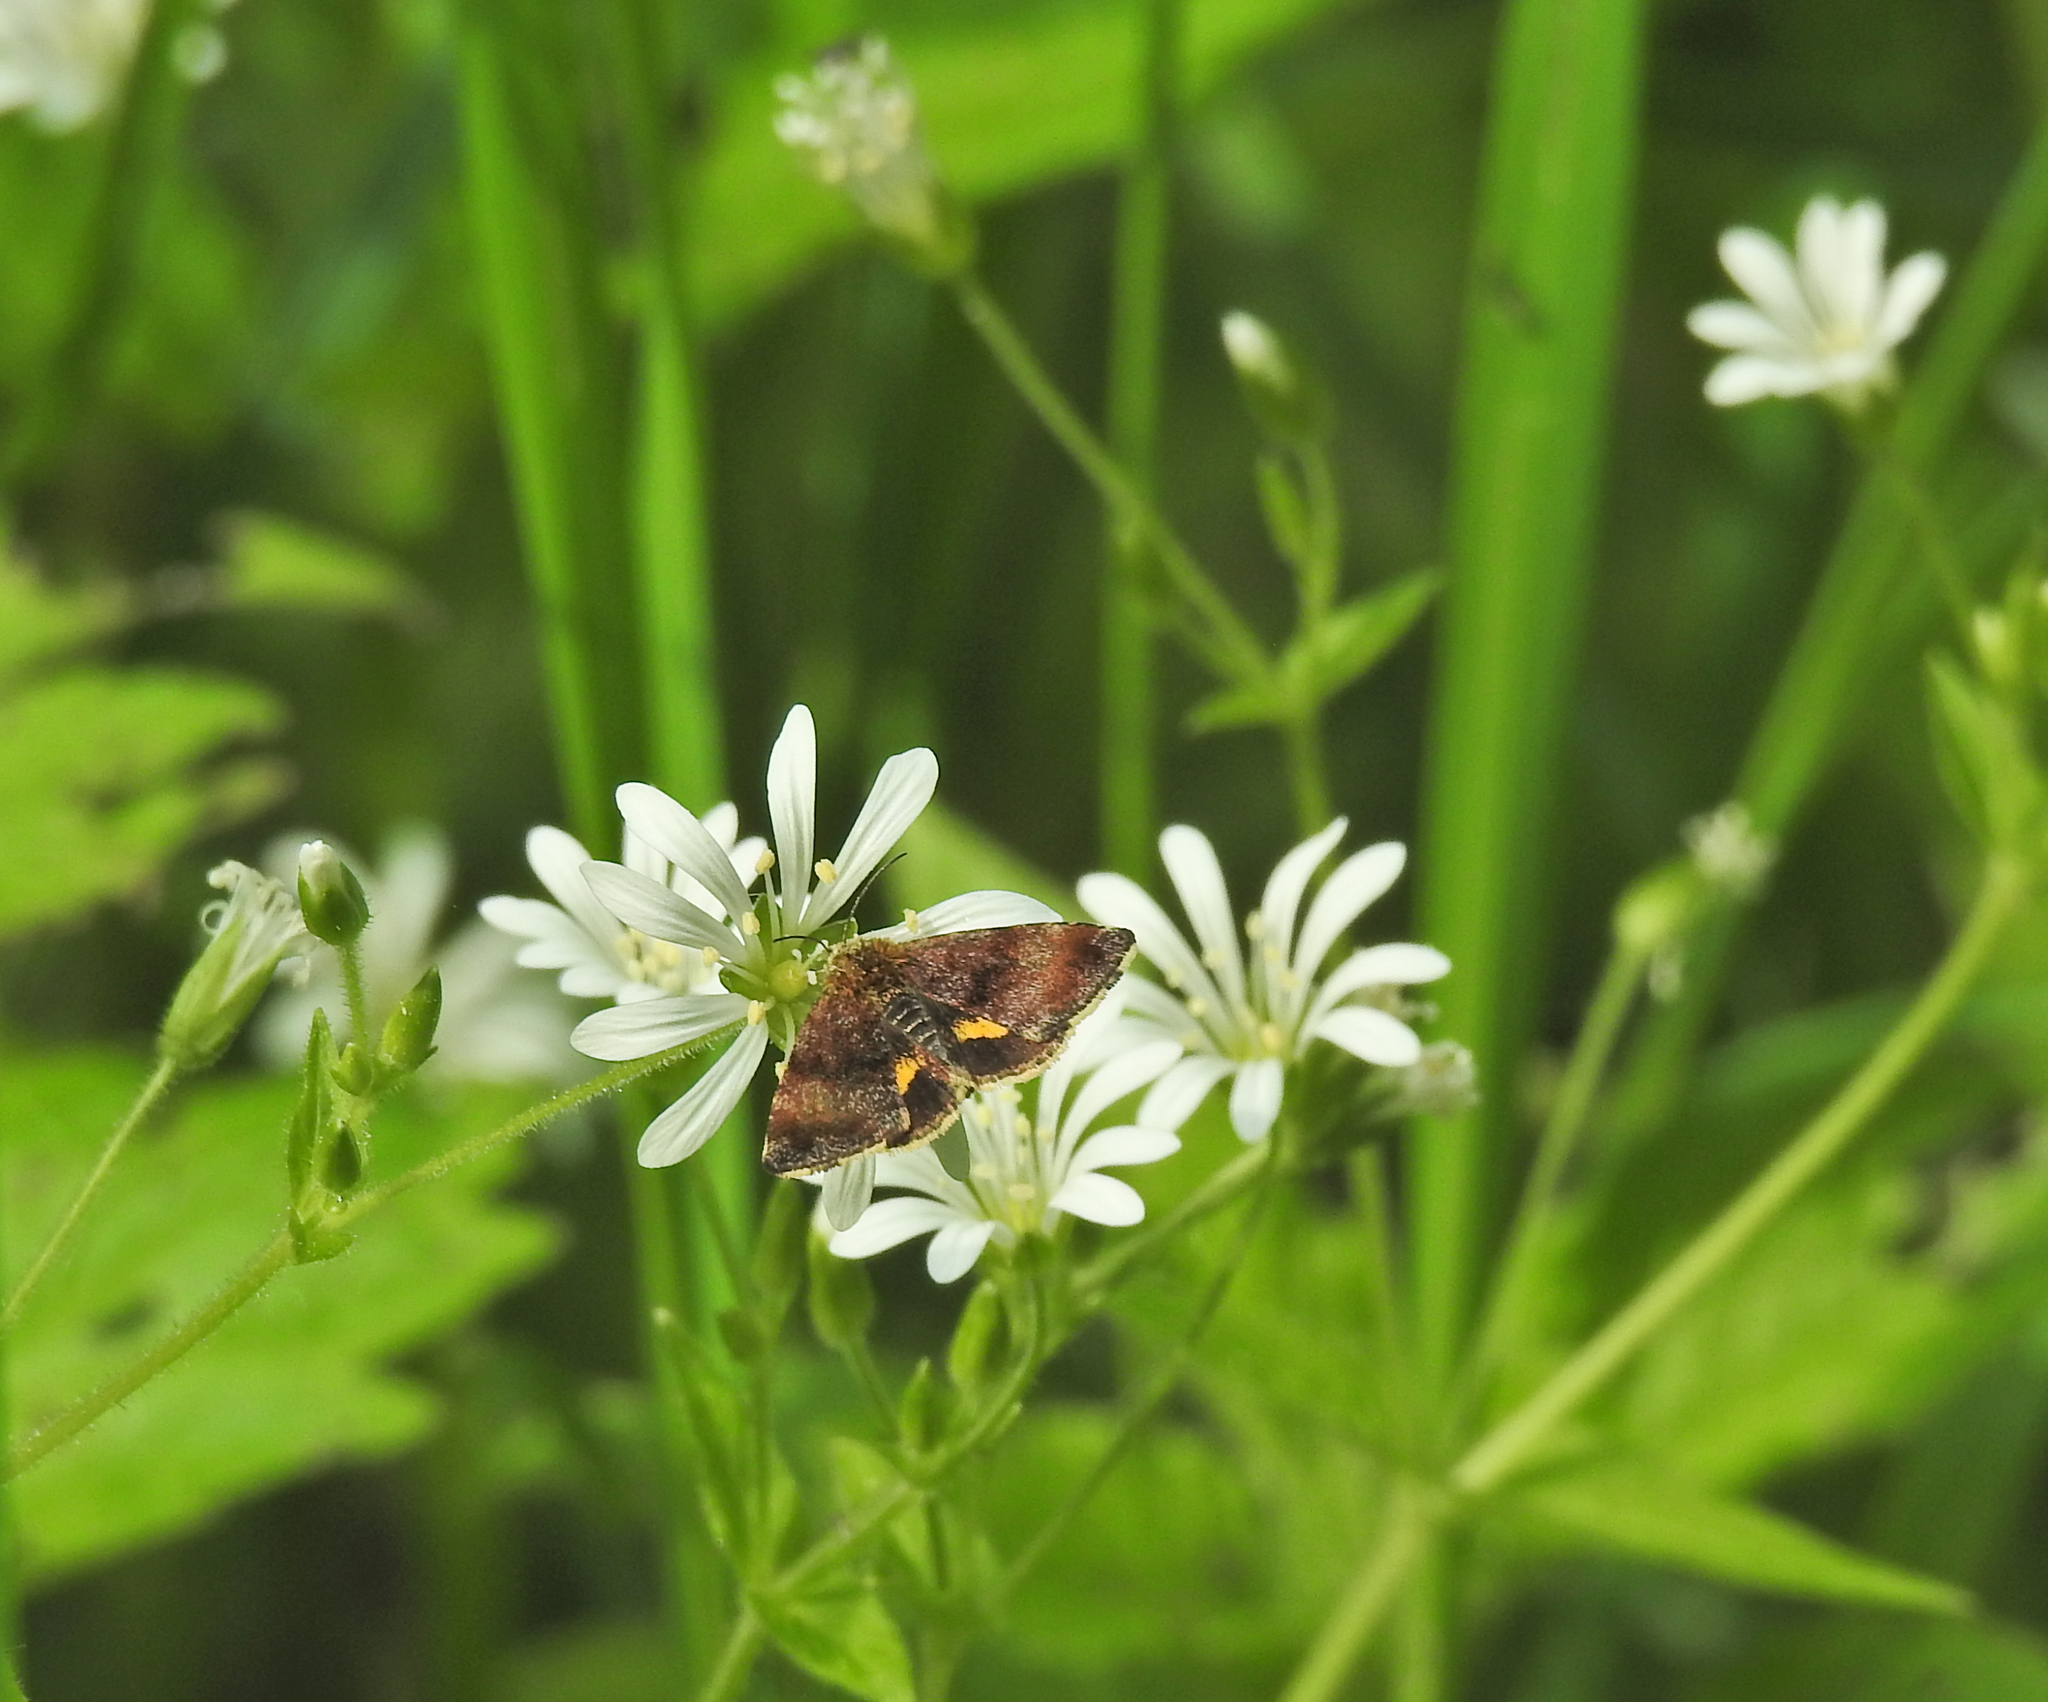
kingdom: Animalia
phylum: Arthropoda
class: Insecta
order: Lepidoptera
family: Noctuidae
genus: Panemeria
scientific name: Panemeria tenebrata
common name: Small yellow underwing
